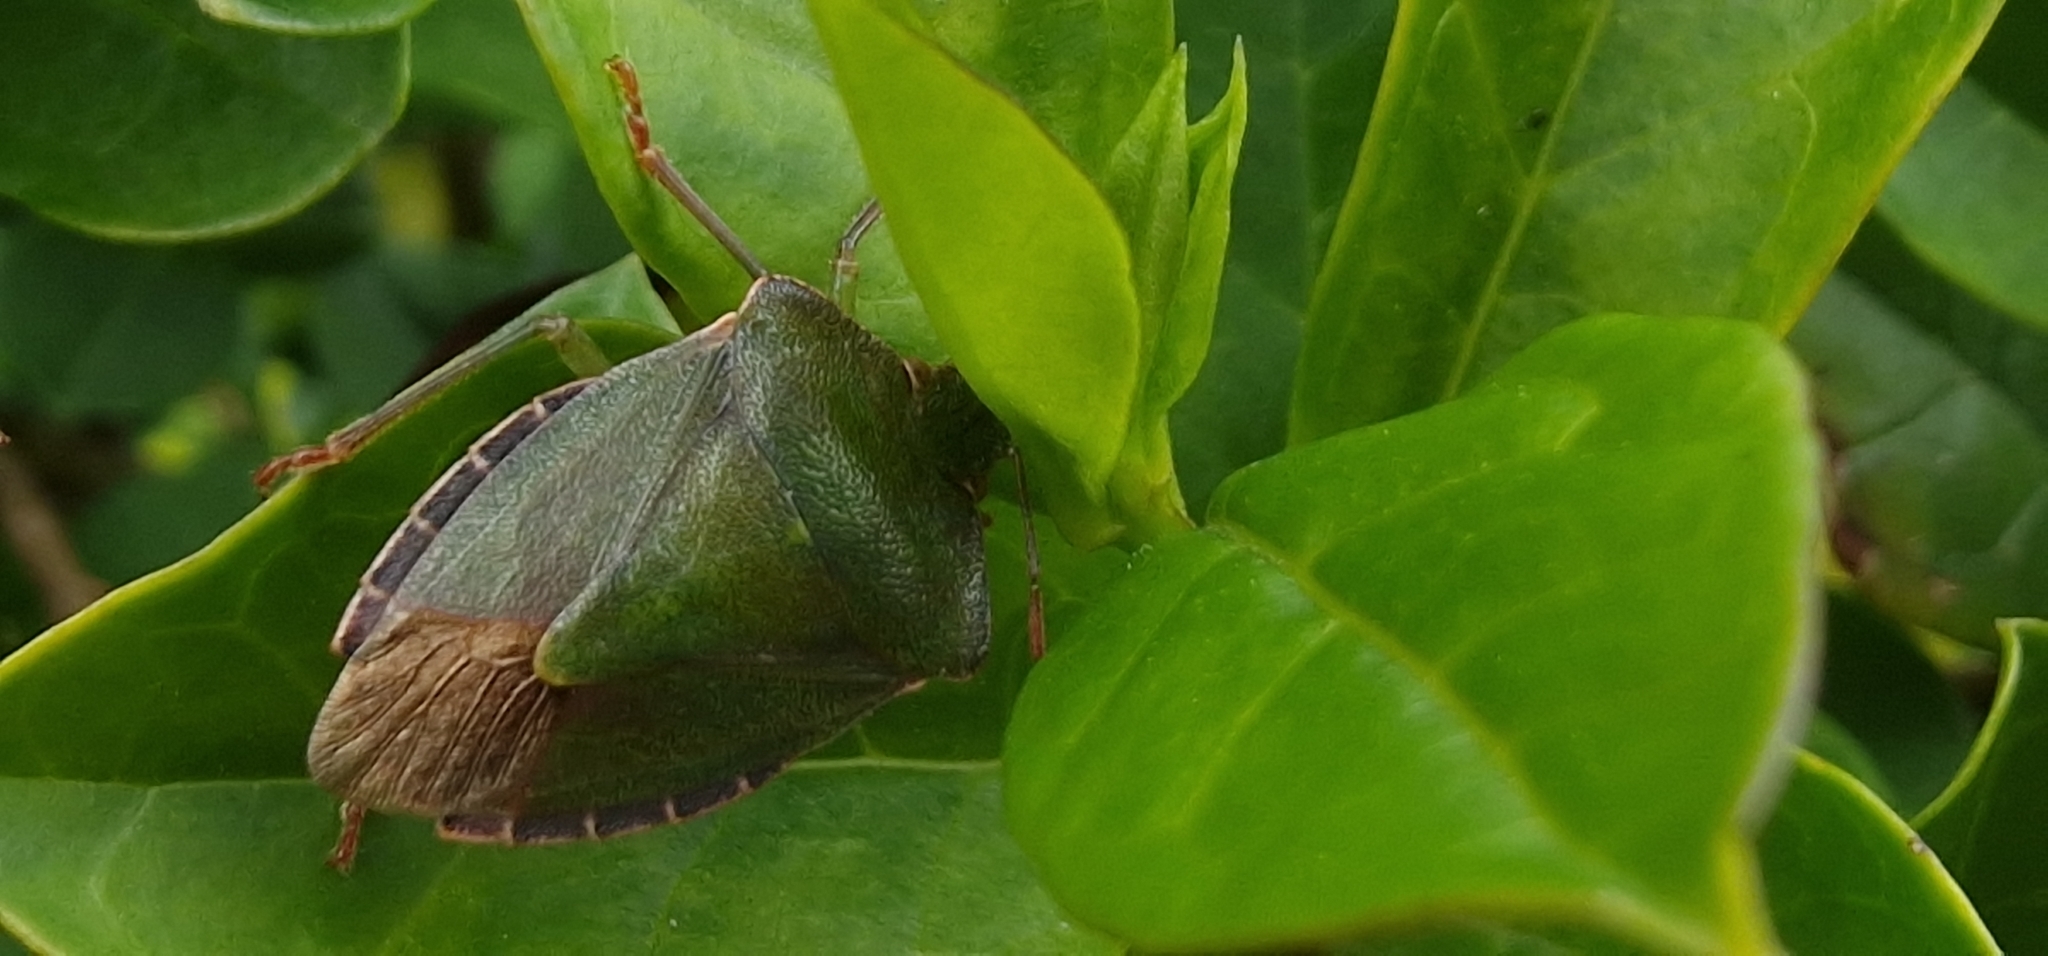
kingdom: Animalia
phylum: Arthropoda
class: Insecta
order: Hemiptera
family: Pentatomidae
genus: Palomena
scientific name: Palomena prasina
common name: Green shieldbug
